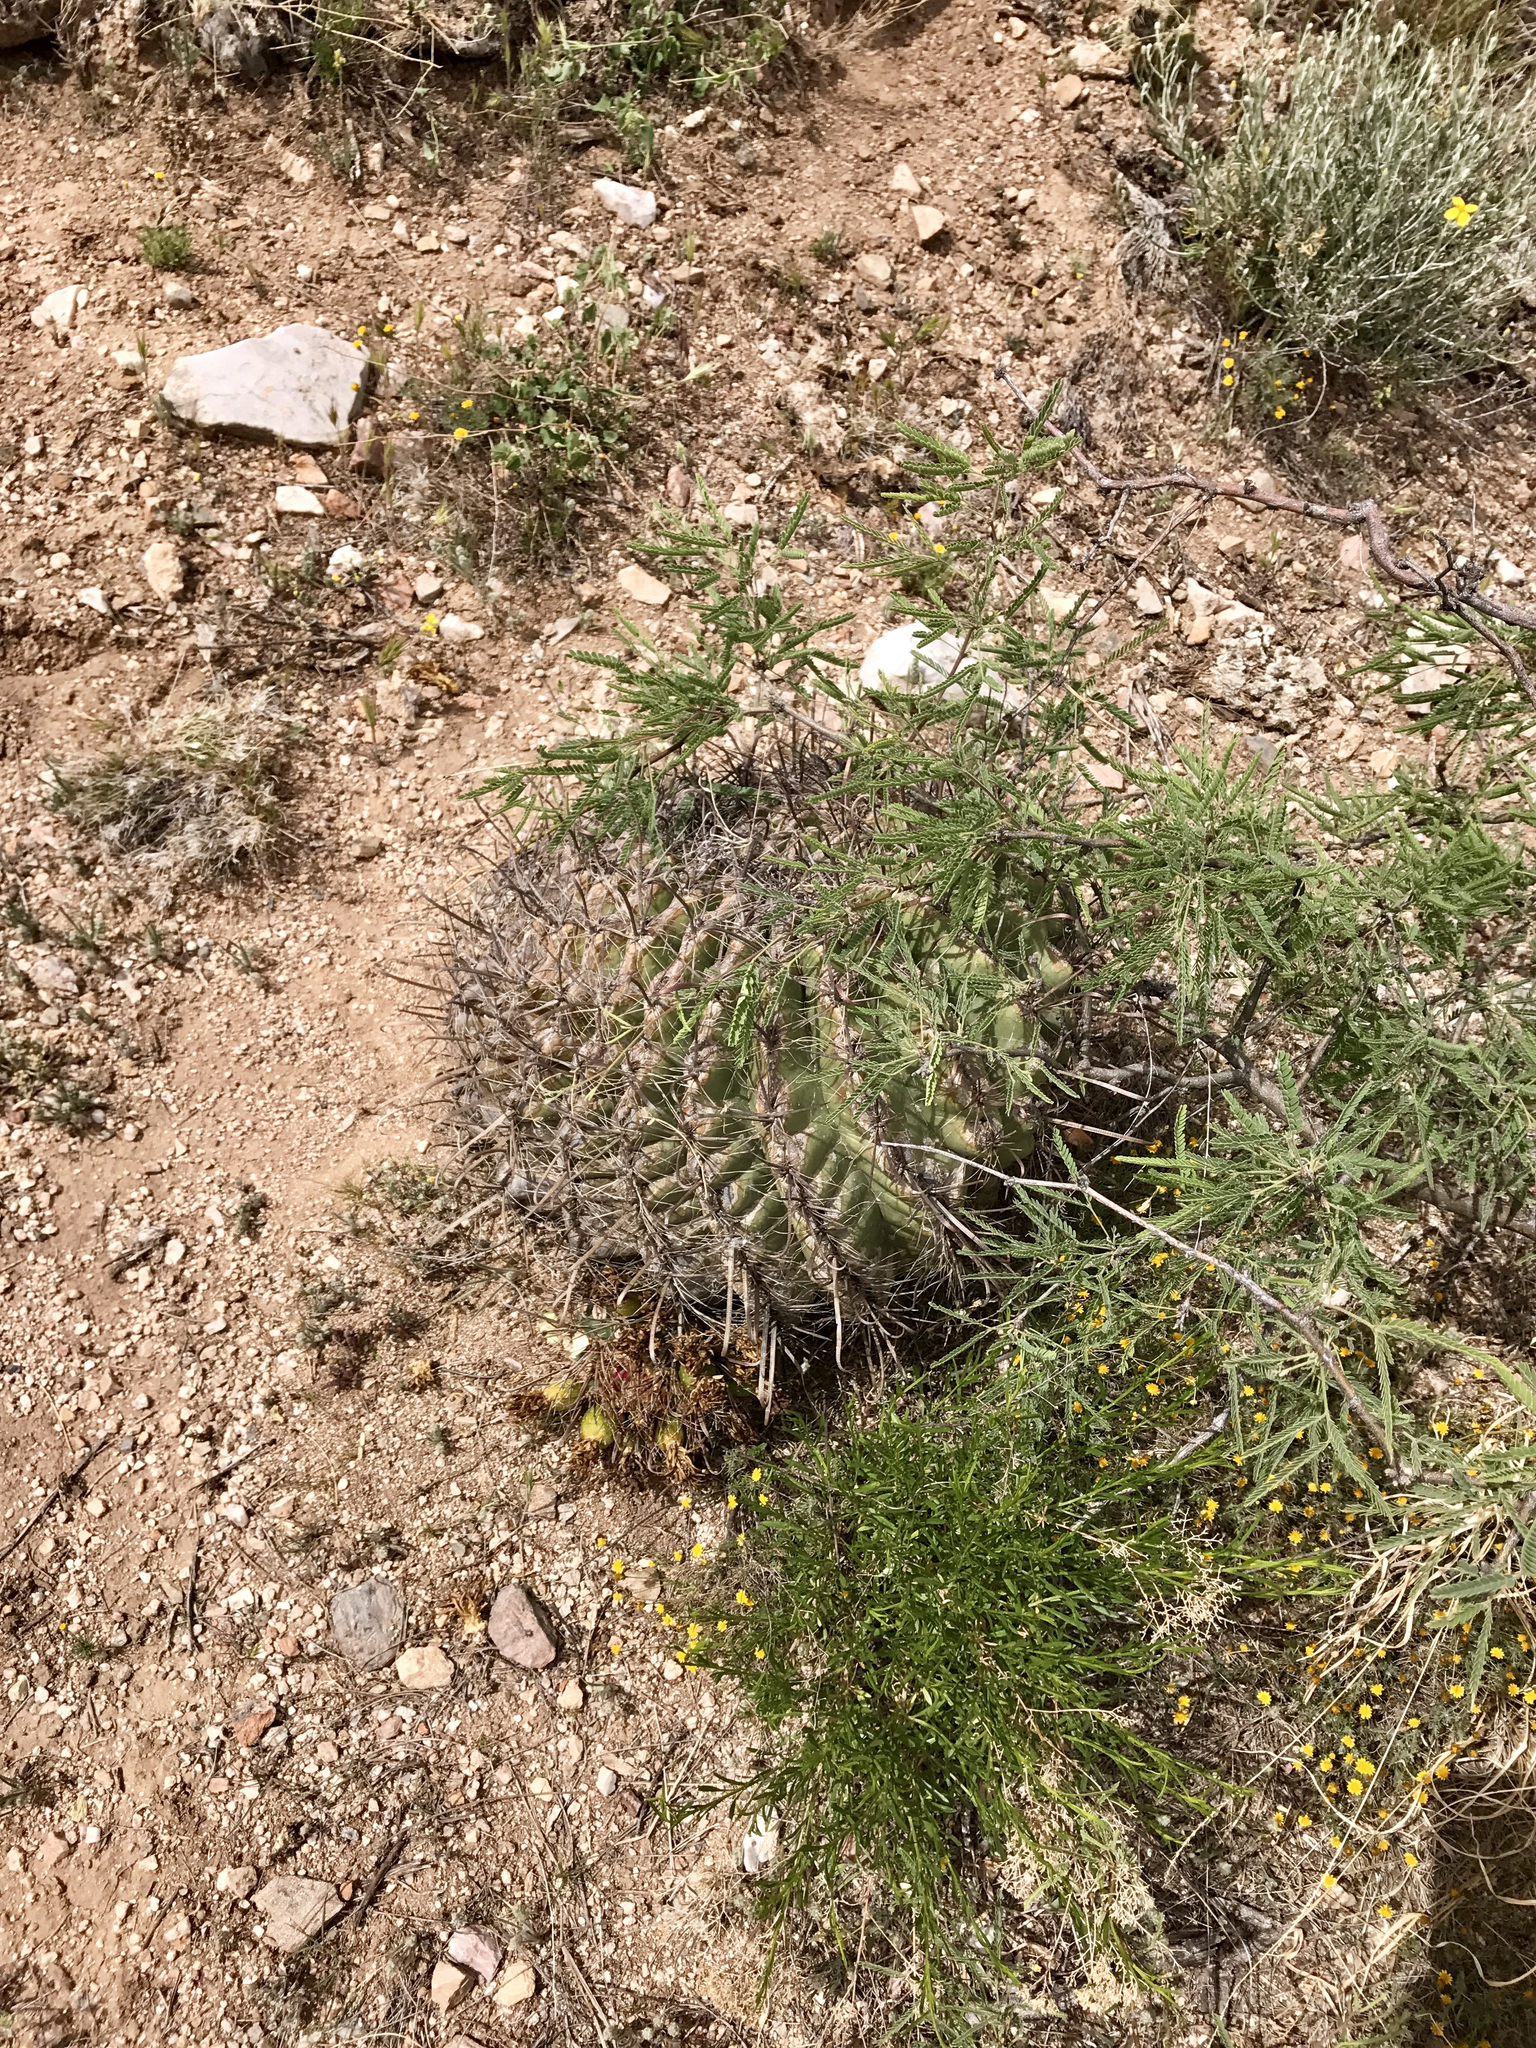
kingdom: Plantae
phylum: Tracheophyta
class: Magnoliopsida
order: Caryophyllales
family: Cactaceae
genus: Ferocactus
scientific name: Ferocactus wislizeni
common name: Candy barrel cactus
